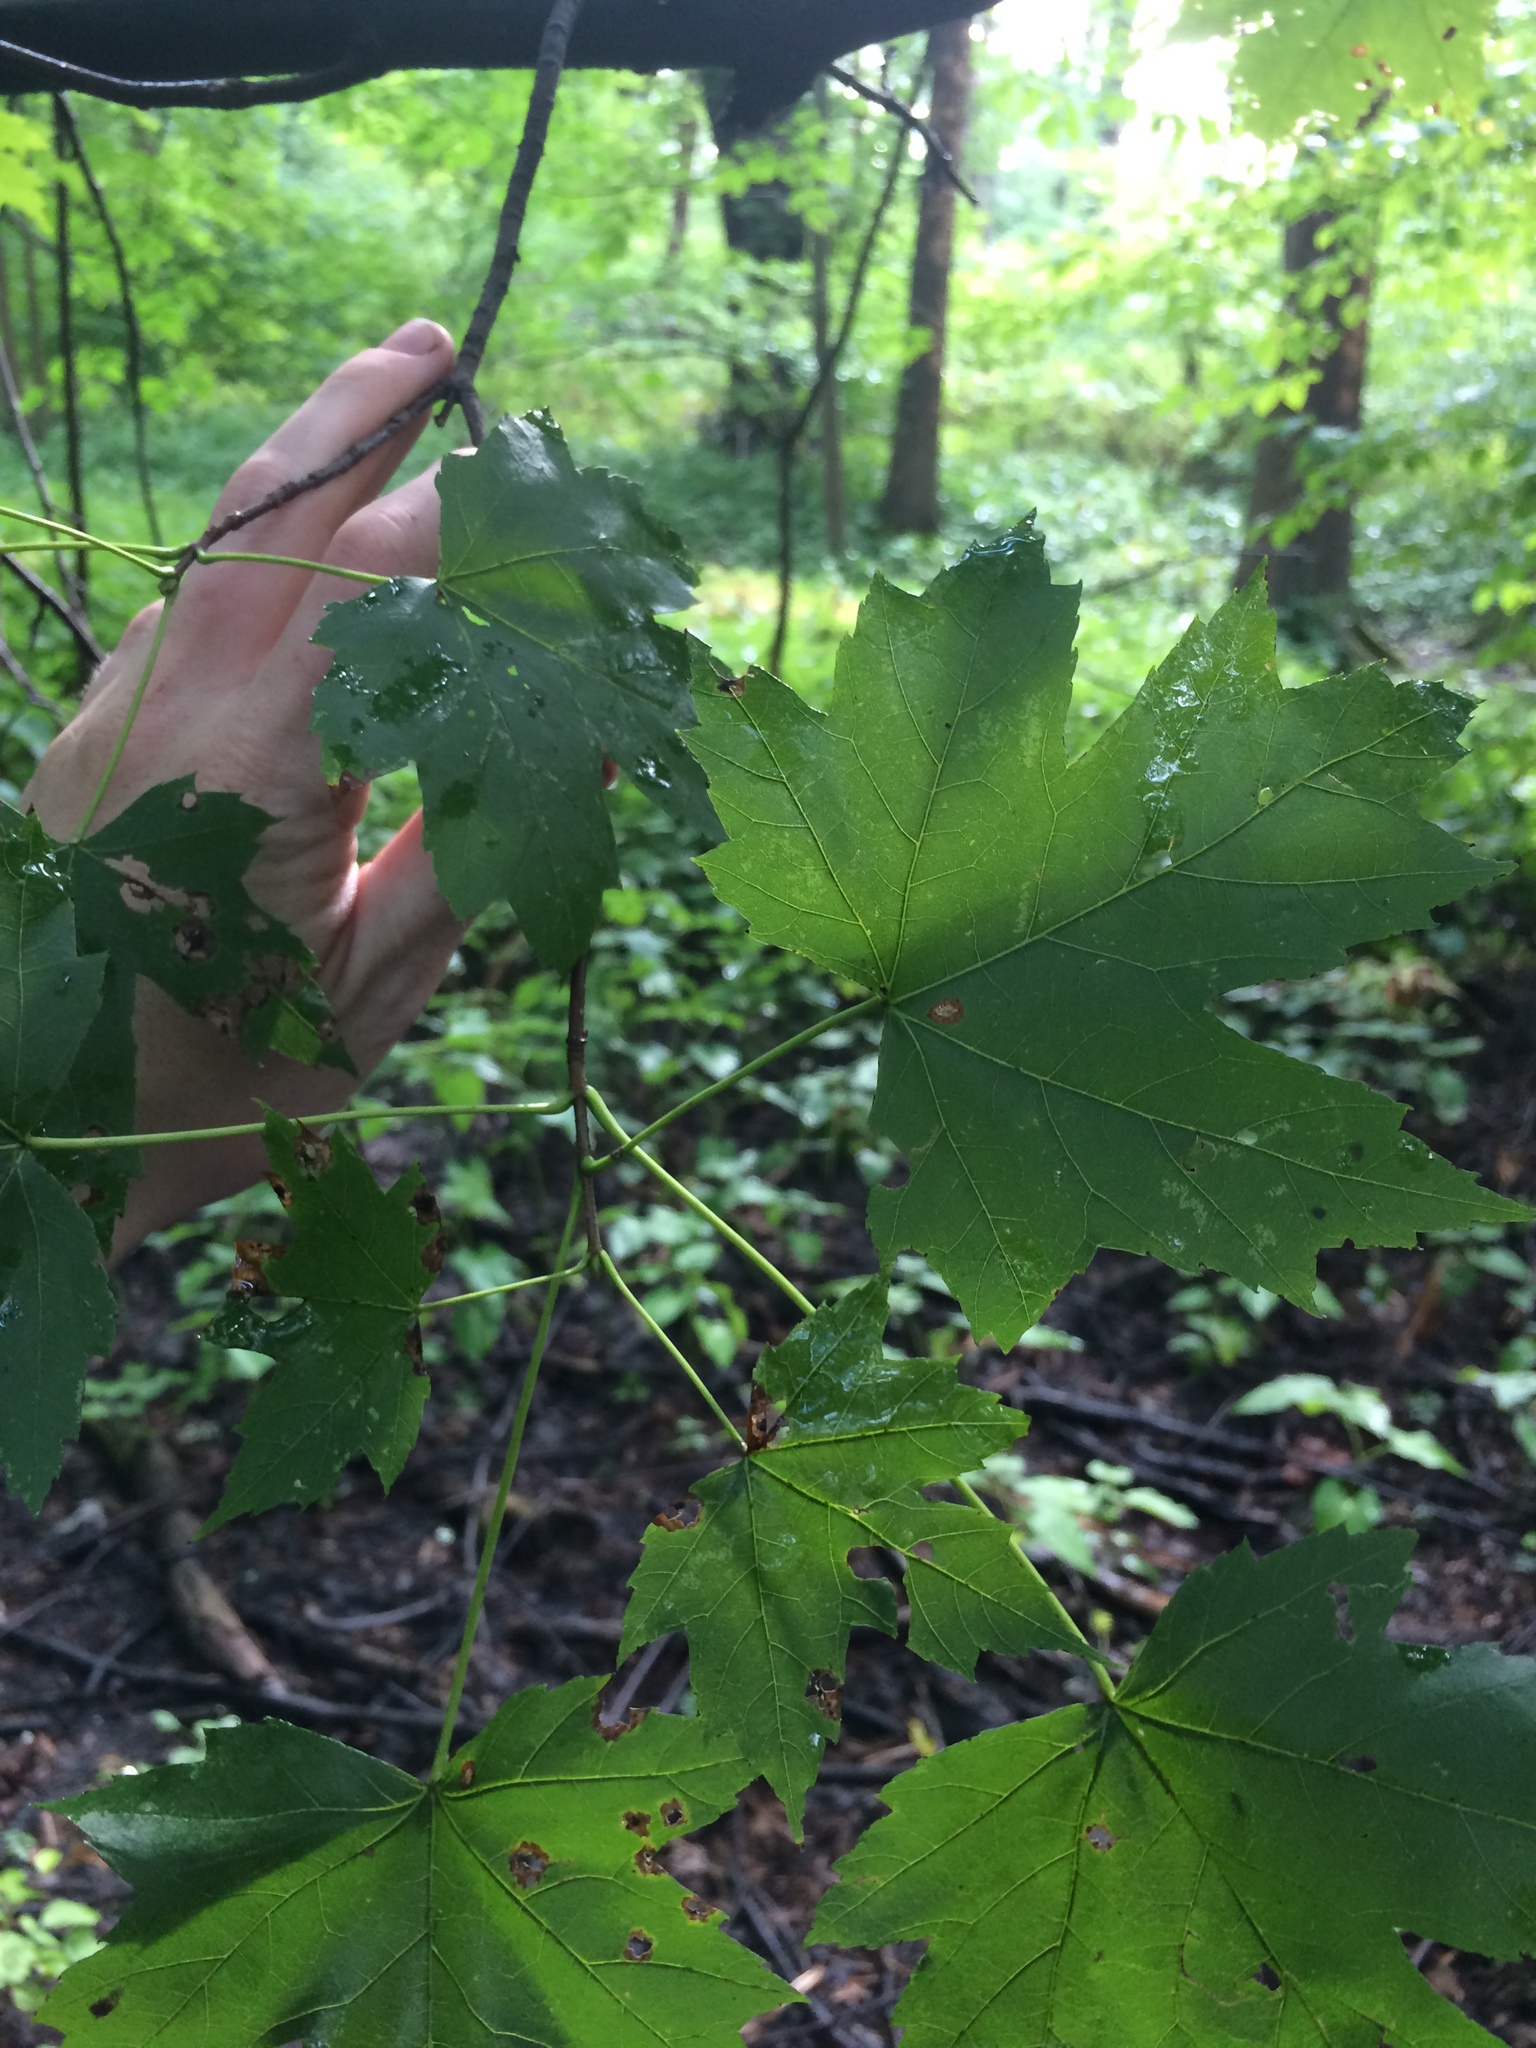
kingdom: Plantae
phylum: Tracheophyta
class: Magnoliopsida
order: Sapindales
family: Sapindaceae
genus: Acer
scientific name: Acer saccharinum
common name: Silver maple
